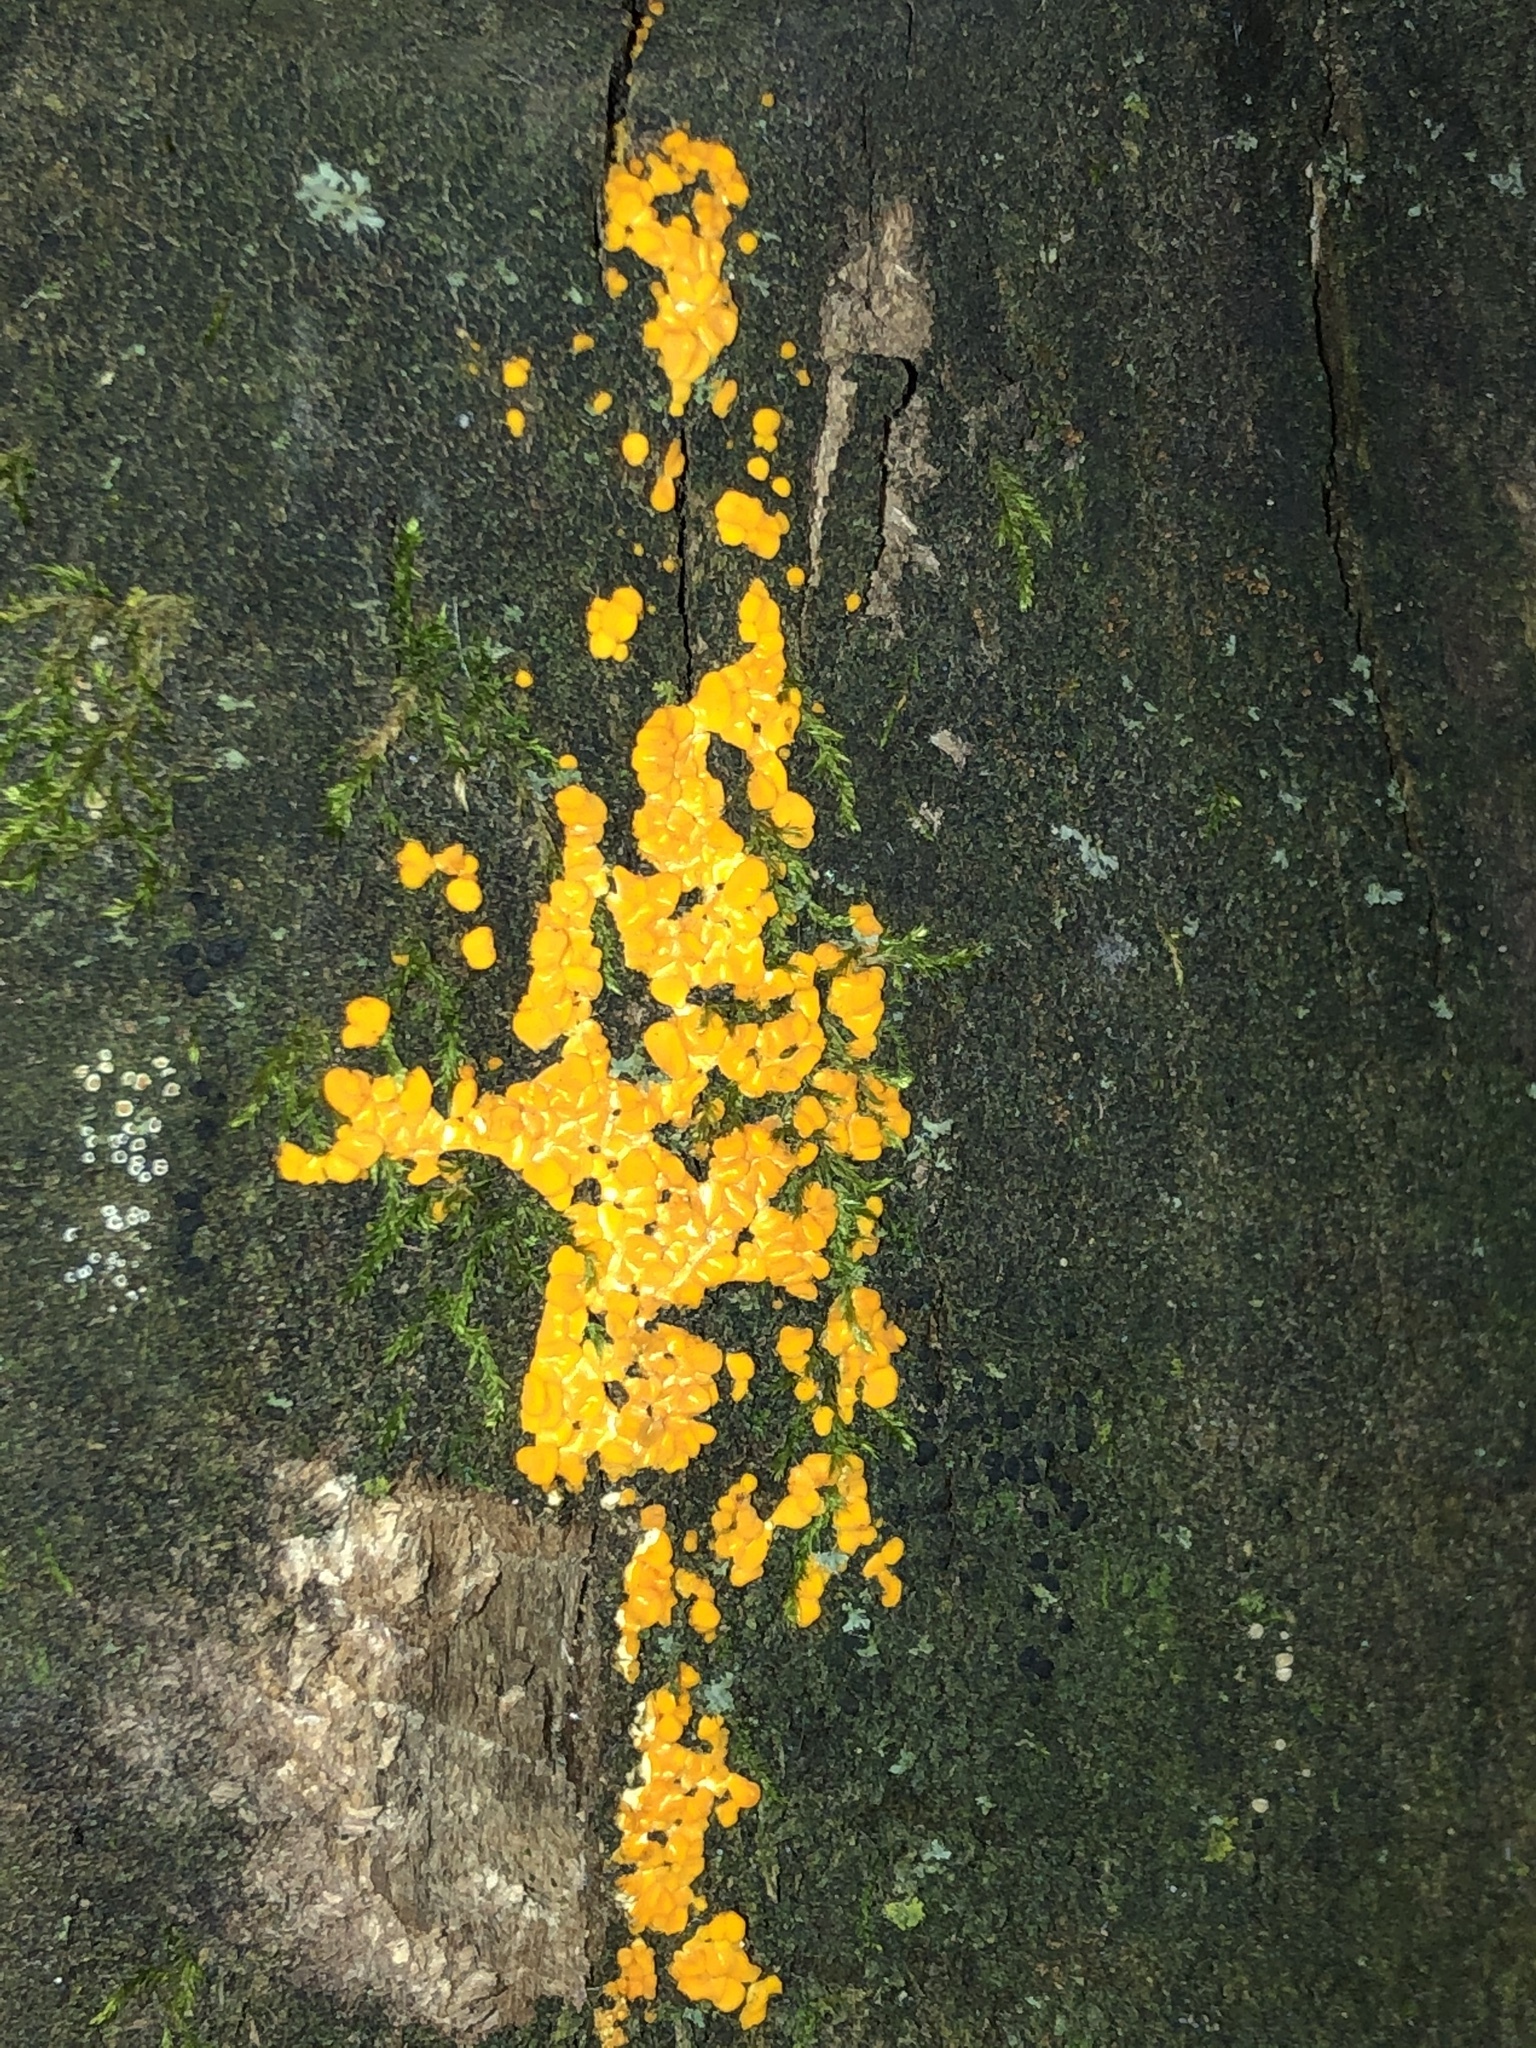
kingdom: Fungi
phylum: Ascomycota
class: Leotiomycetes
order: Helotiales
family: Pezizellaceae
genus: Calycina
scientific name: Calycina citrina
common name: Yellow fairy cups
